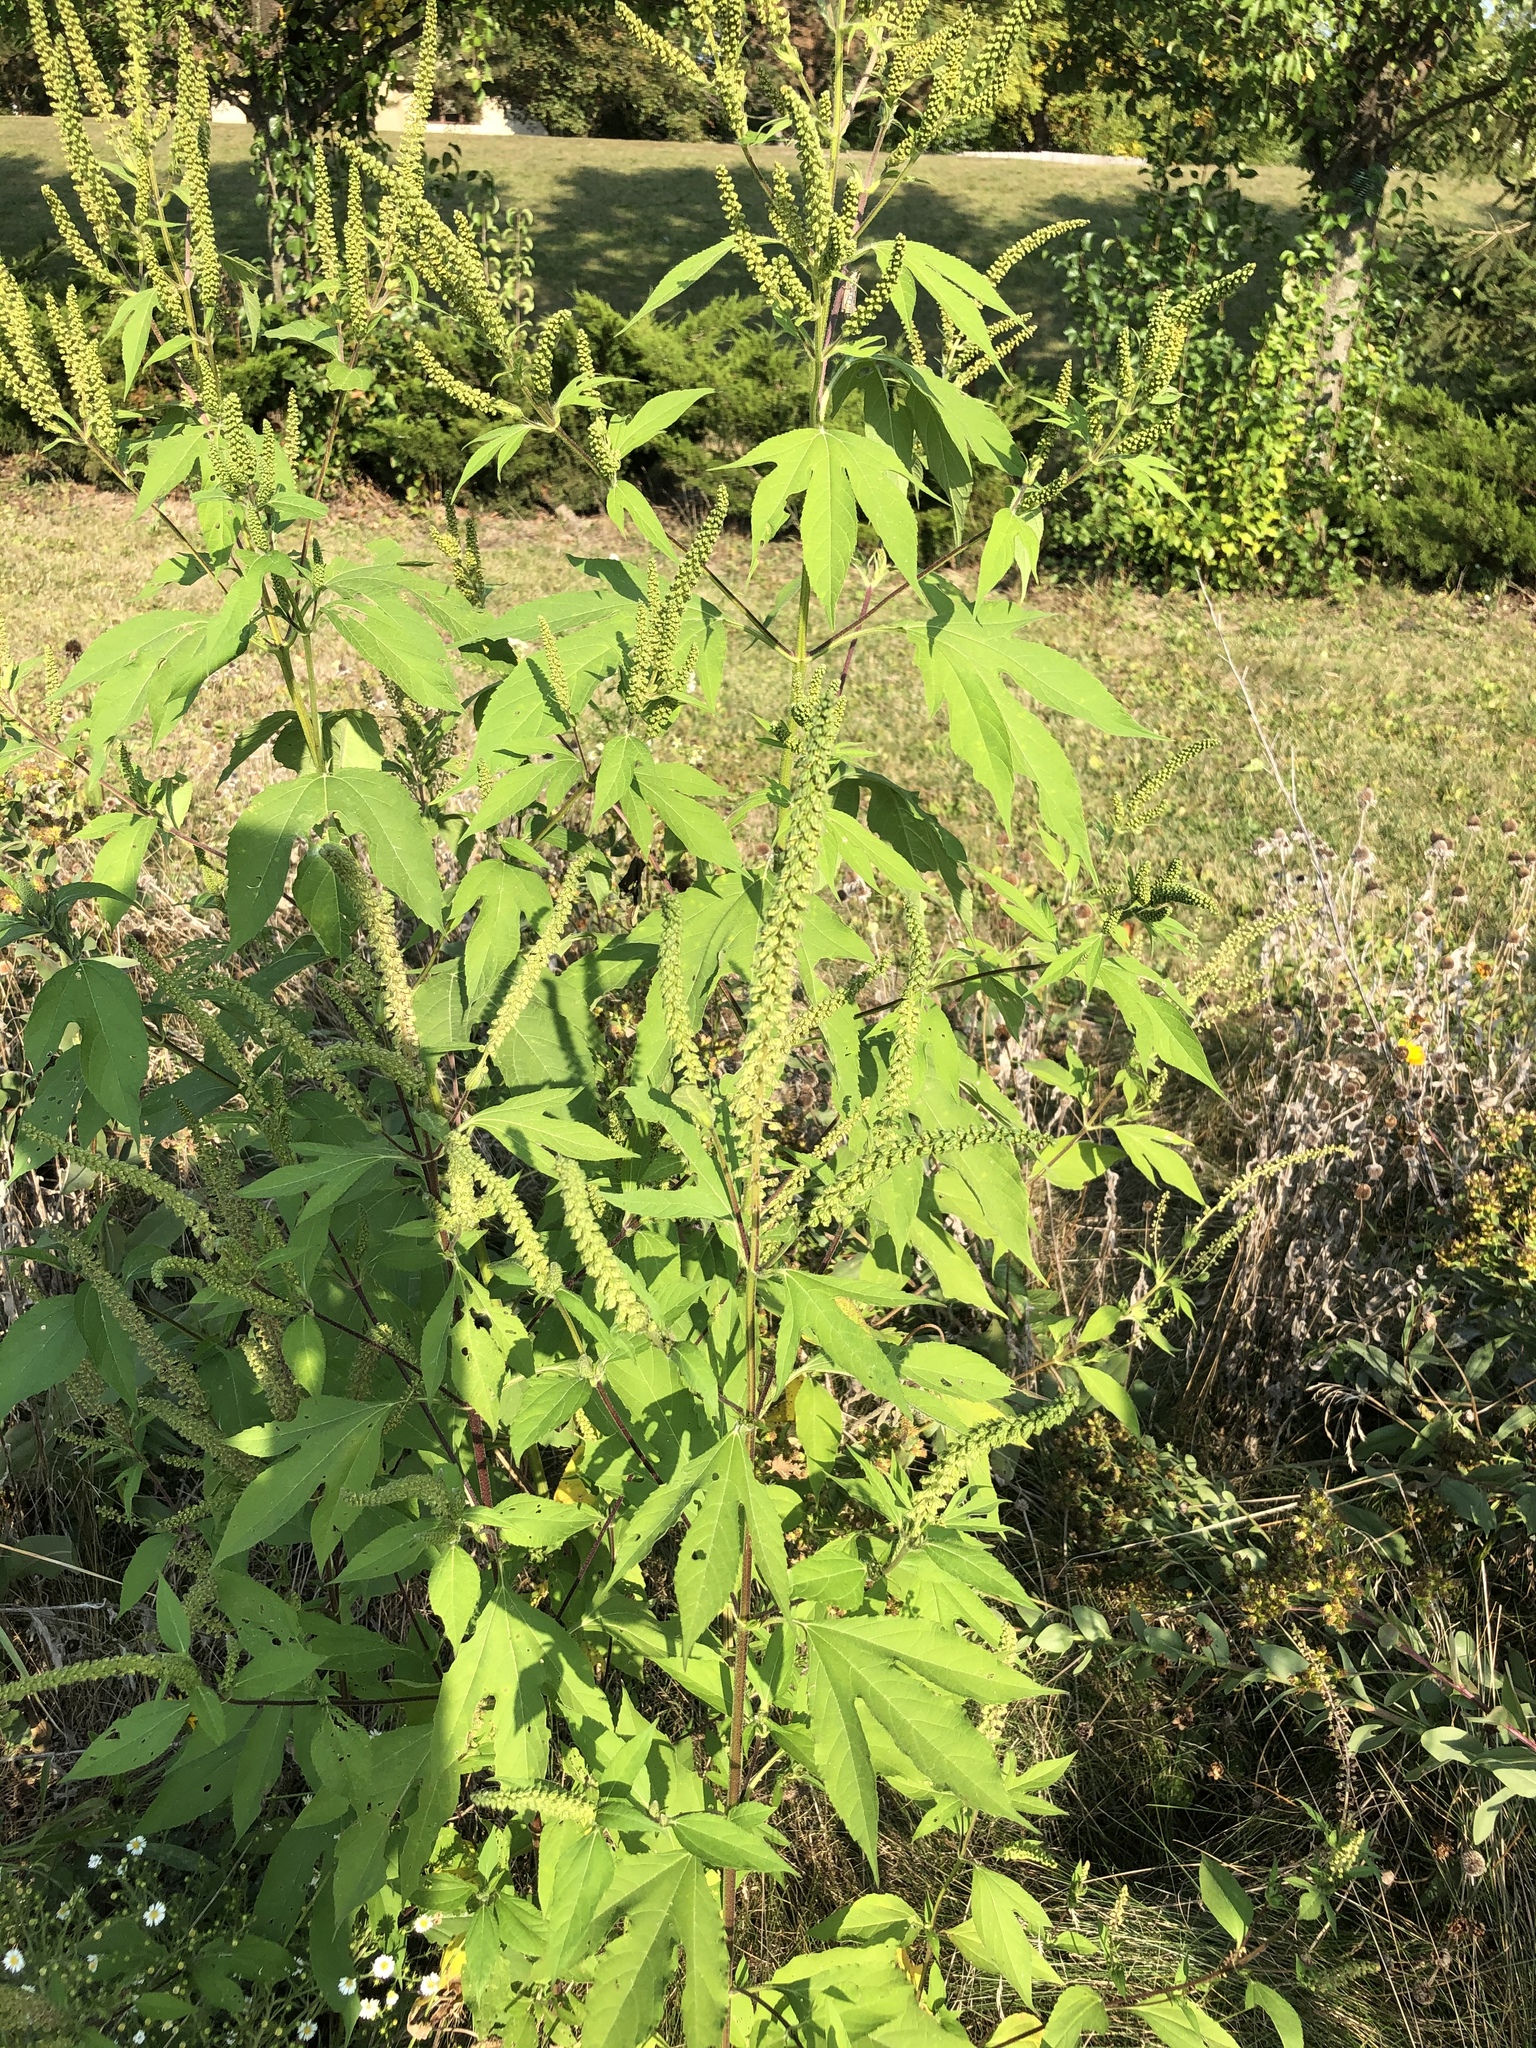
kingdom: Plantae
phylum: Tracheophyta
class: Magnoliopsida
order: Asterales
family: Asteraceae
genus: Ambrosia
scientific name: Ambrosia trifida
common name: Giant ragweed
